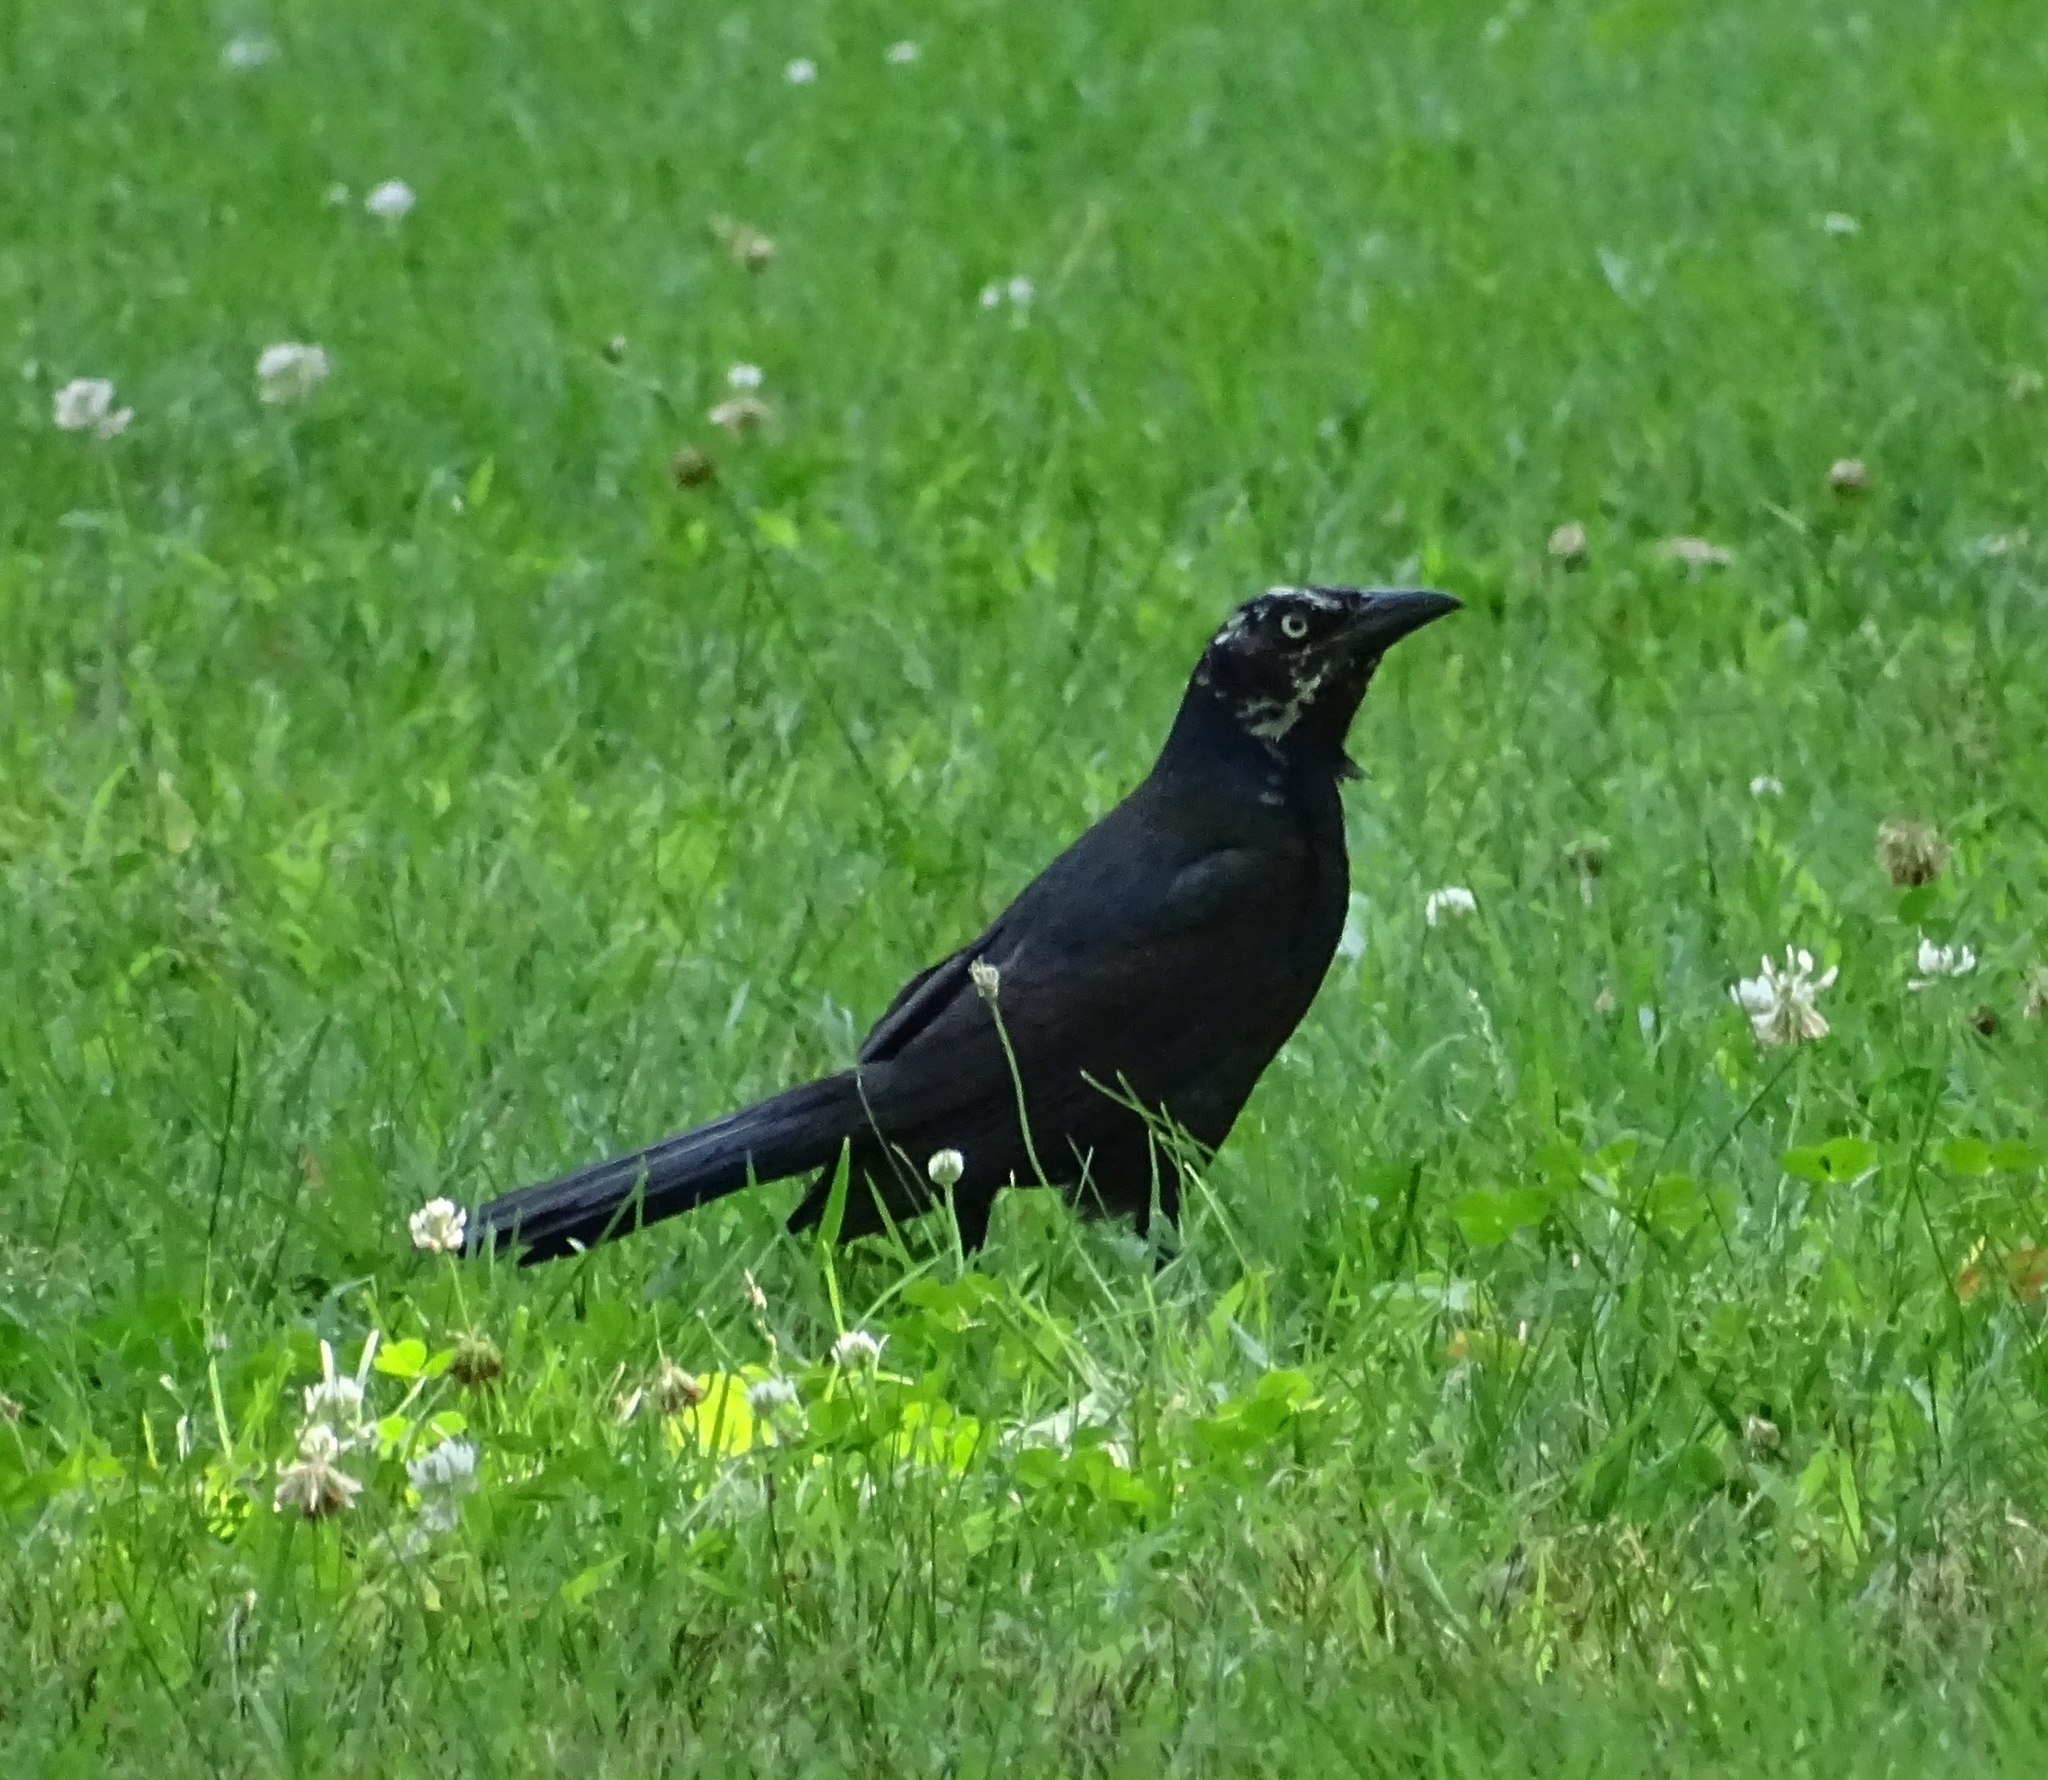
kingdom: Animalia
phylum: Chordata
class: Aves
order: Passeriformes
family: Icteridae
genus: Quiscalus
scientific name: Quiscalus quiscula
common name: Common grackle
